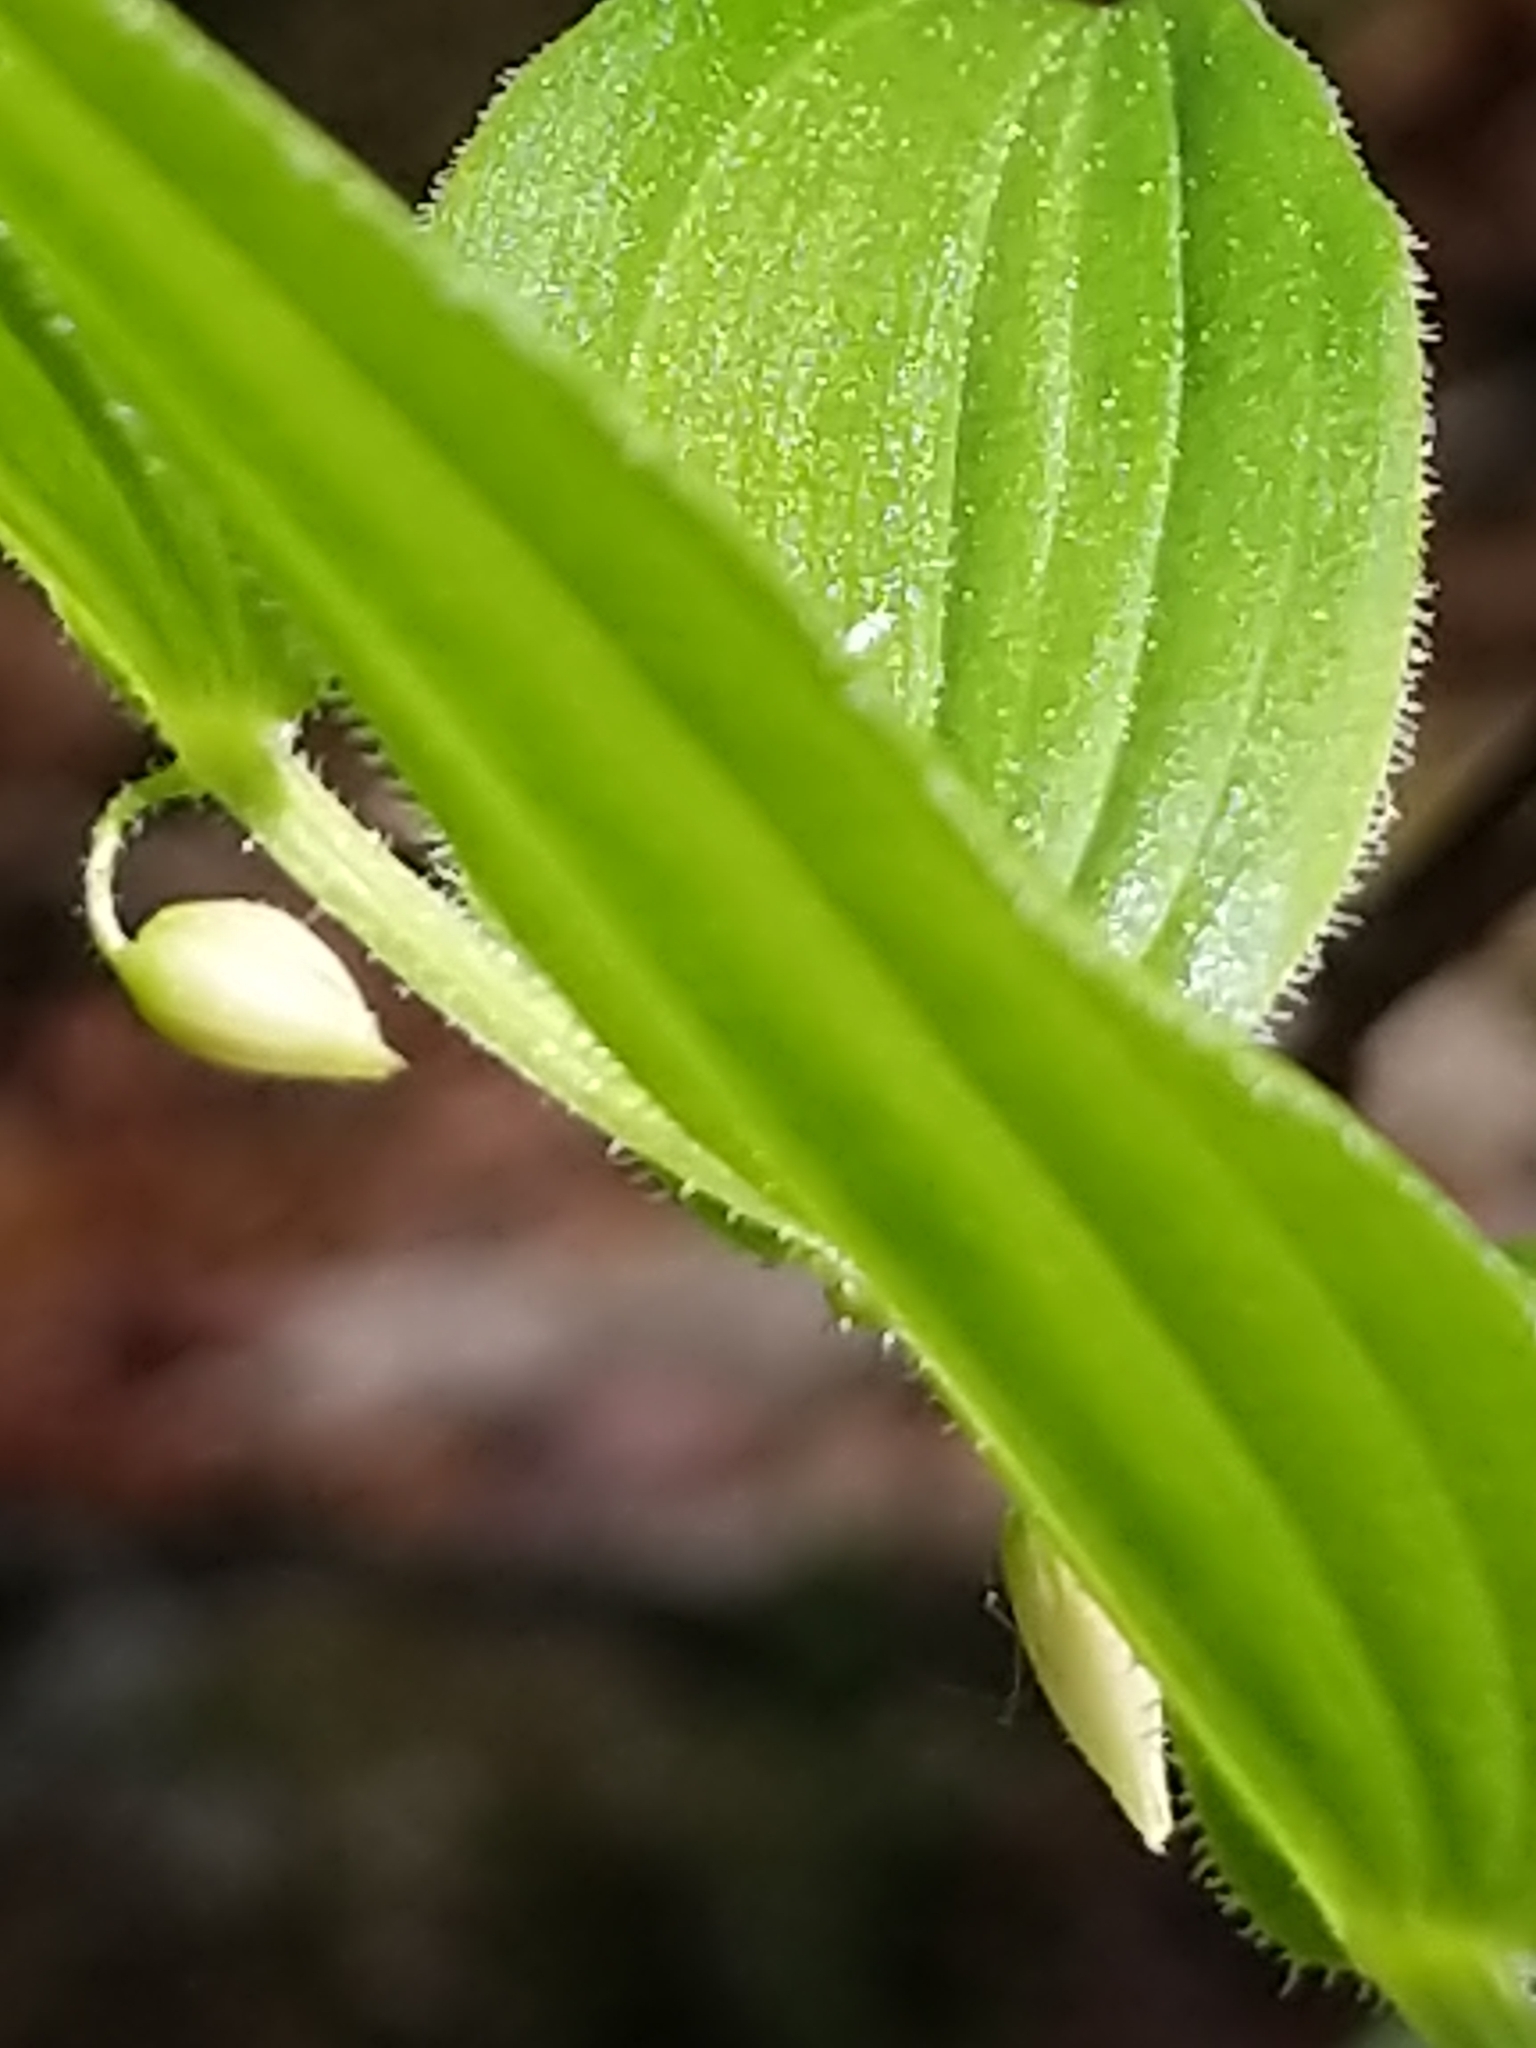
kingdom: Plantae
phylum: Tracheophyta
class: Liliopsida
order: Liliales
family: Liliaceae
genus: Streptopus
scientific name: Streptopus lanceolatus
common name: Rose mandarin
